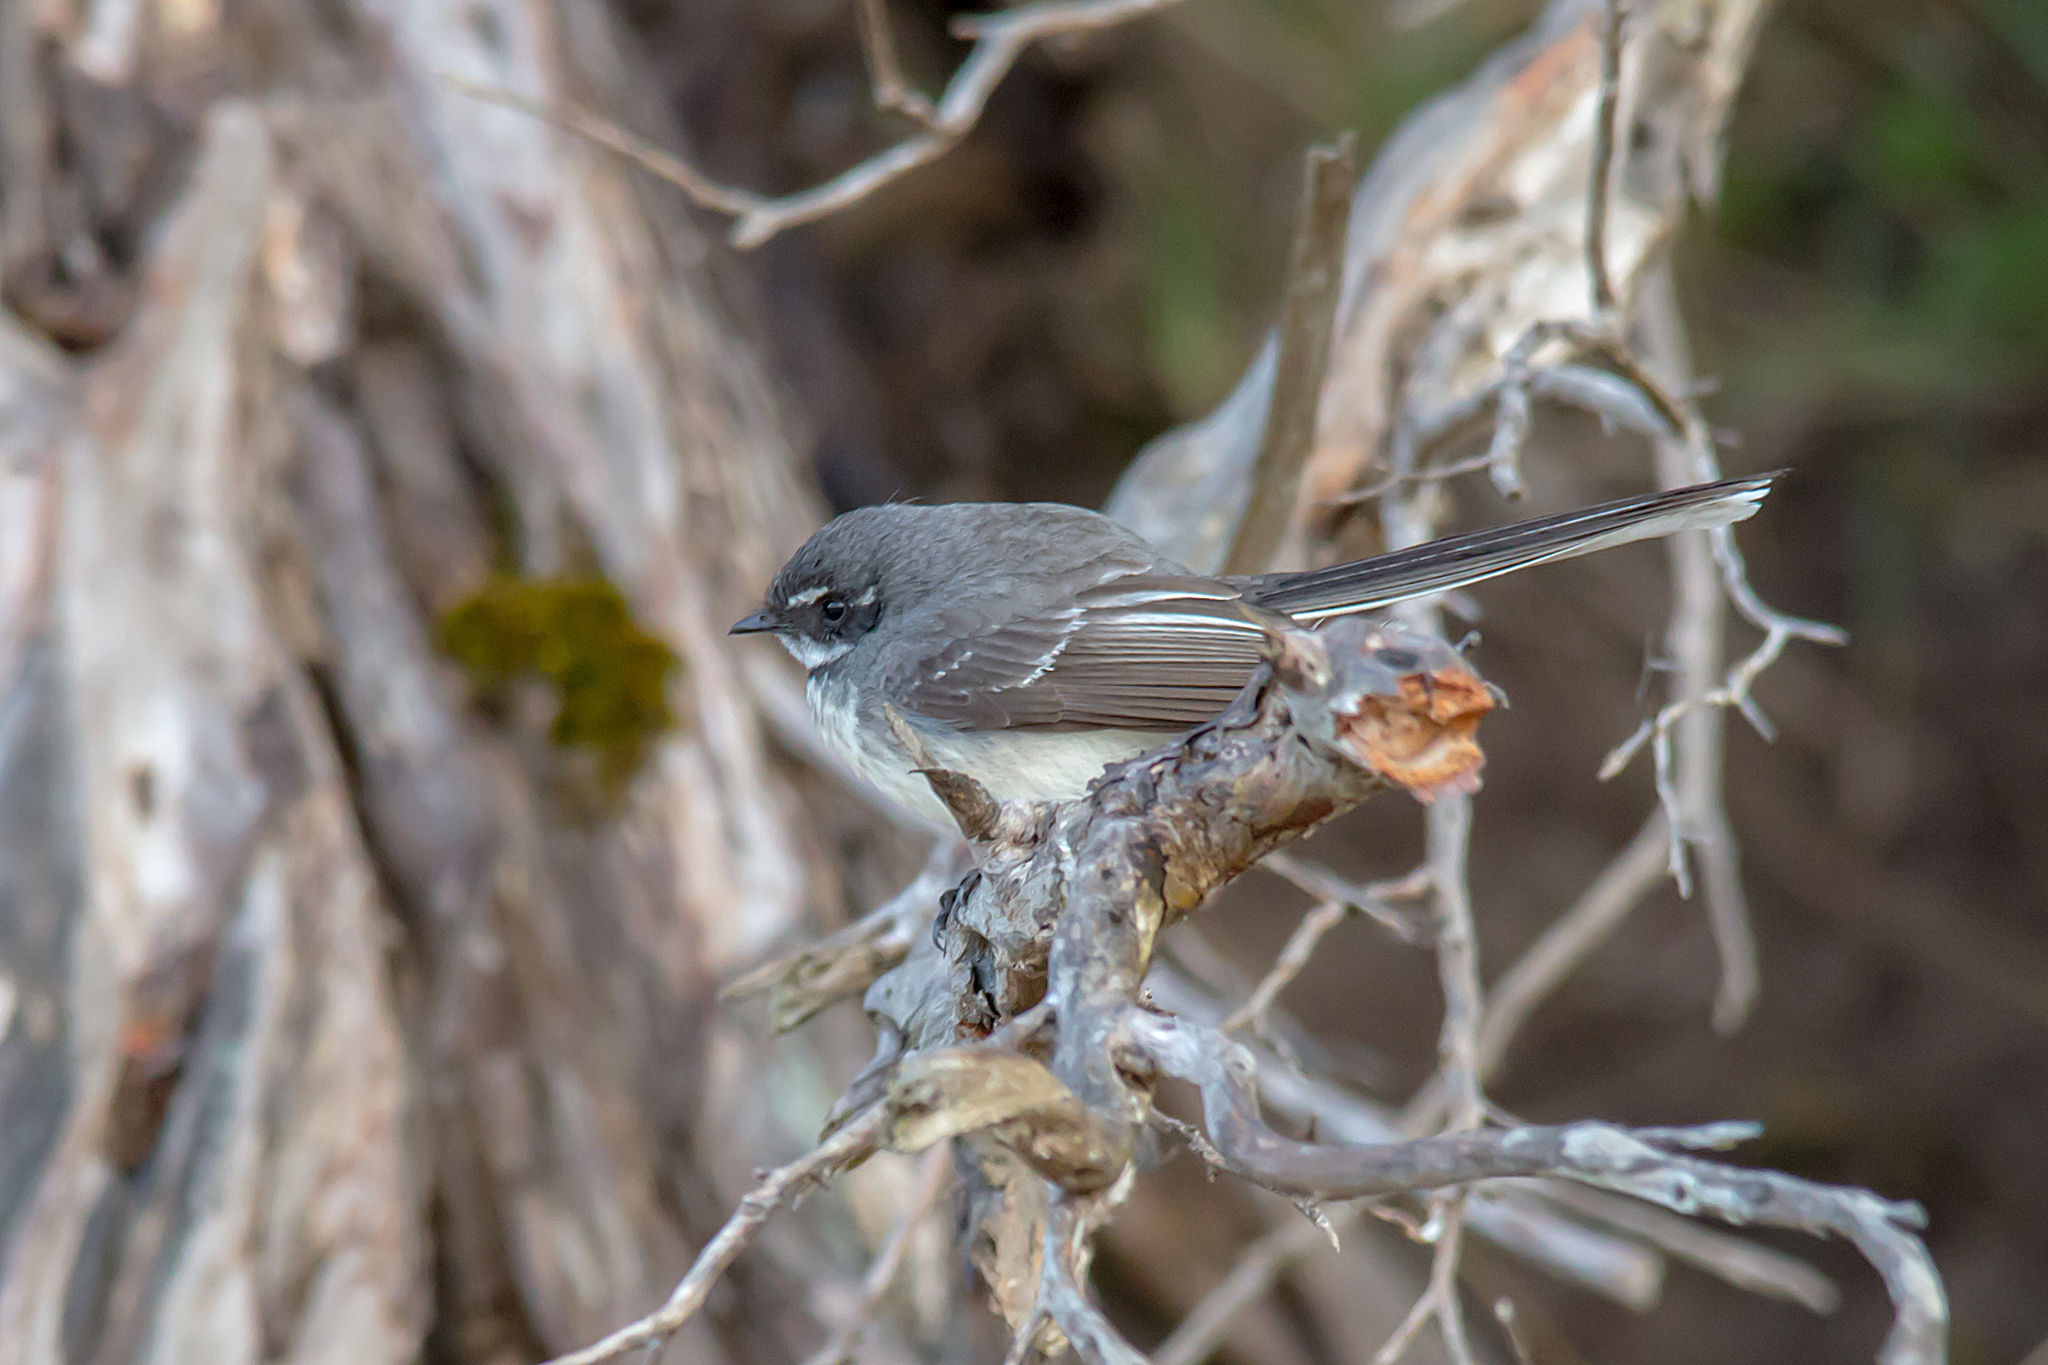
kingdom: Animalia
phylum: Chordata
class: Aves
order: Passeriformes
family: Rhipiduridae
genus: Rhipidura
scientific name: Rhipidura albiscapa
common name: Grey fantail
